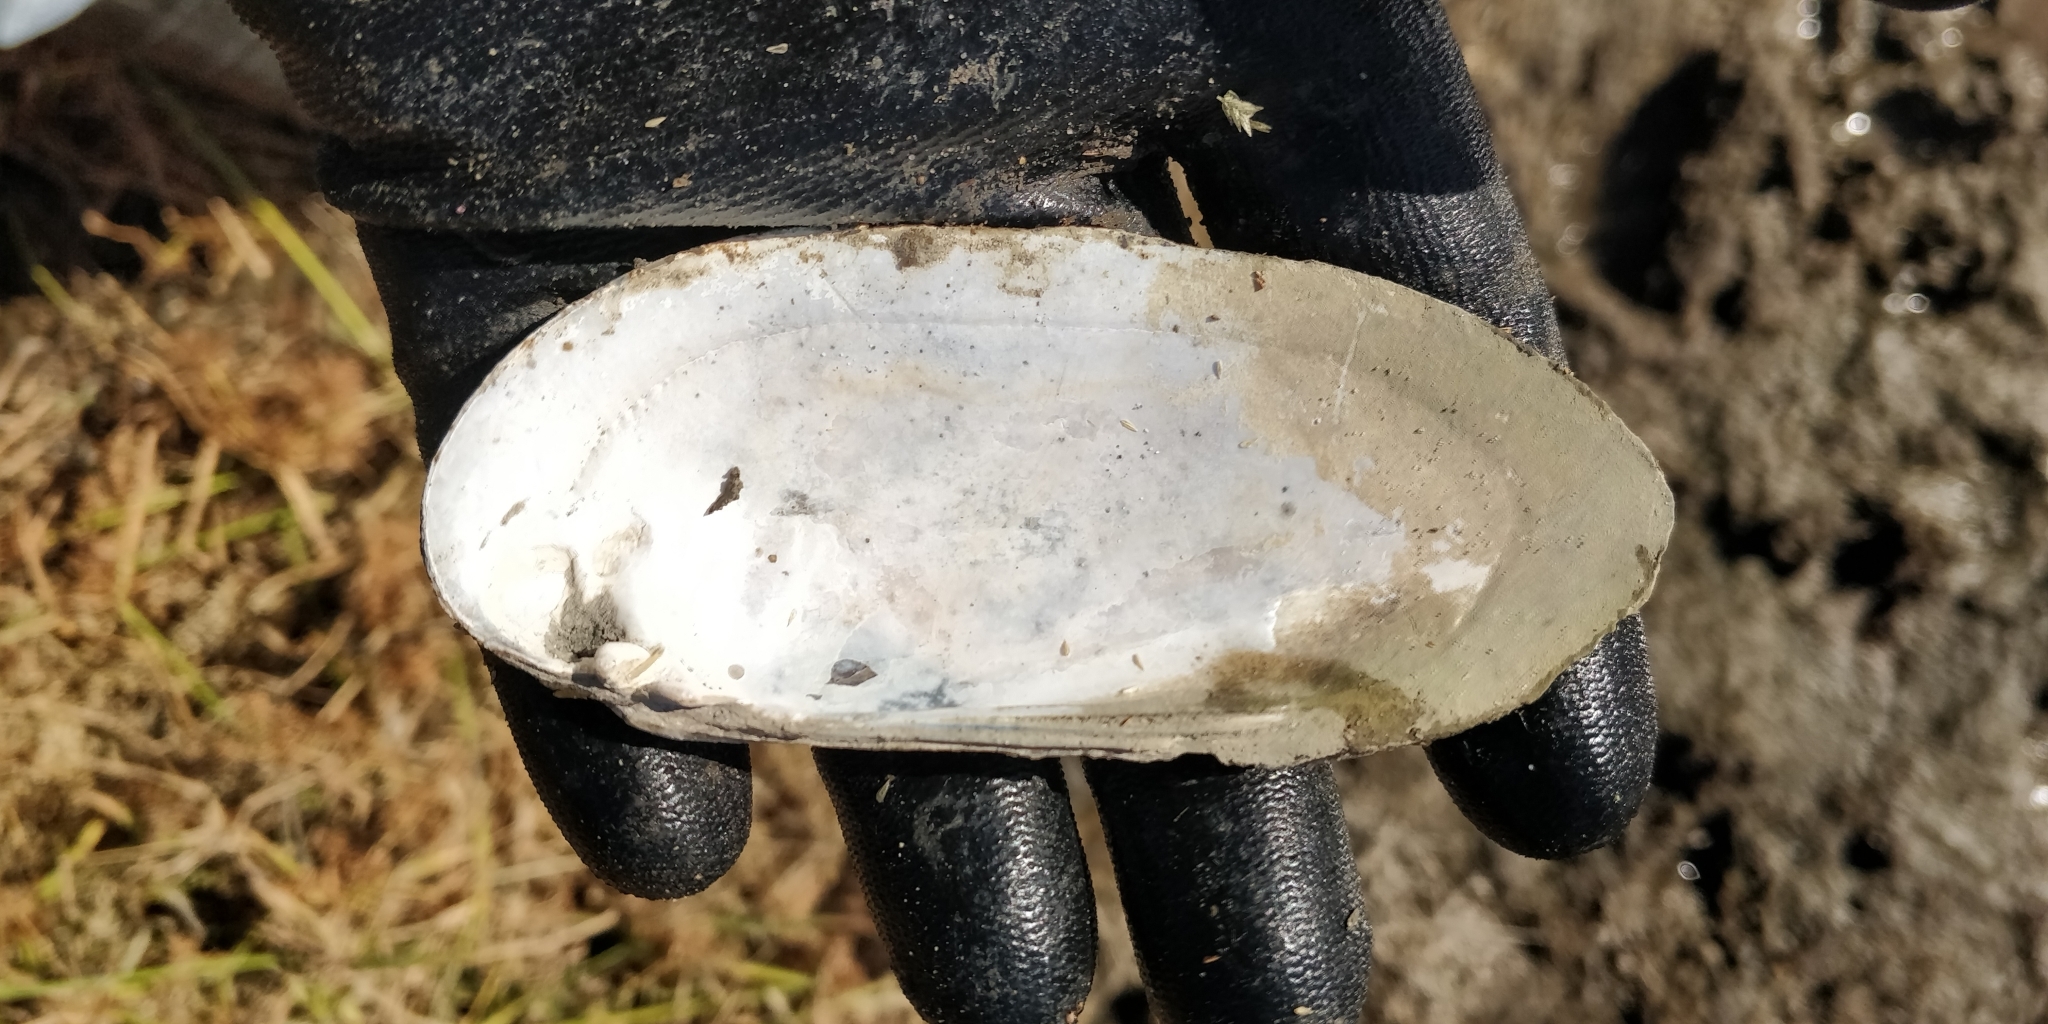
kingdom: Animalia
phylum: Mollusca
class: Bivalvia
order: Unionida
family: Unionidae
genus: Ligumia
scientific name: Ligumia recta
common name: Black sandshell
